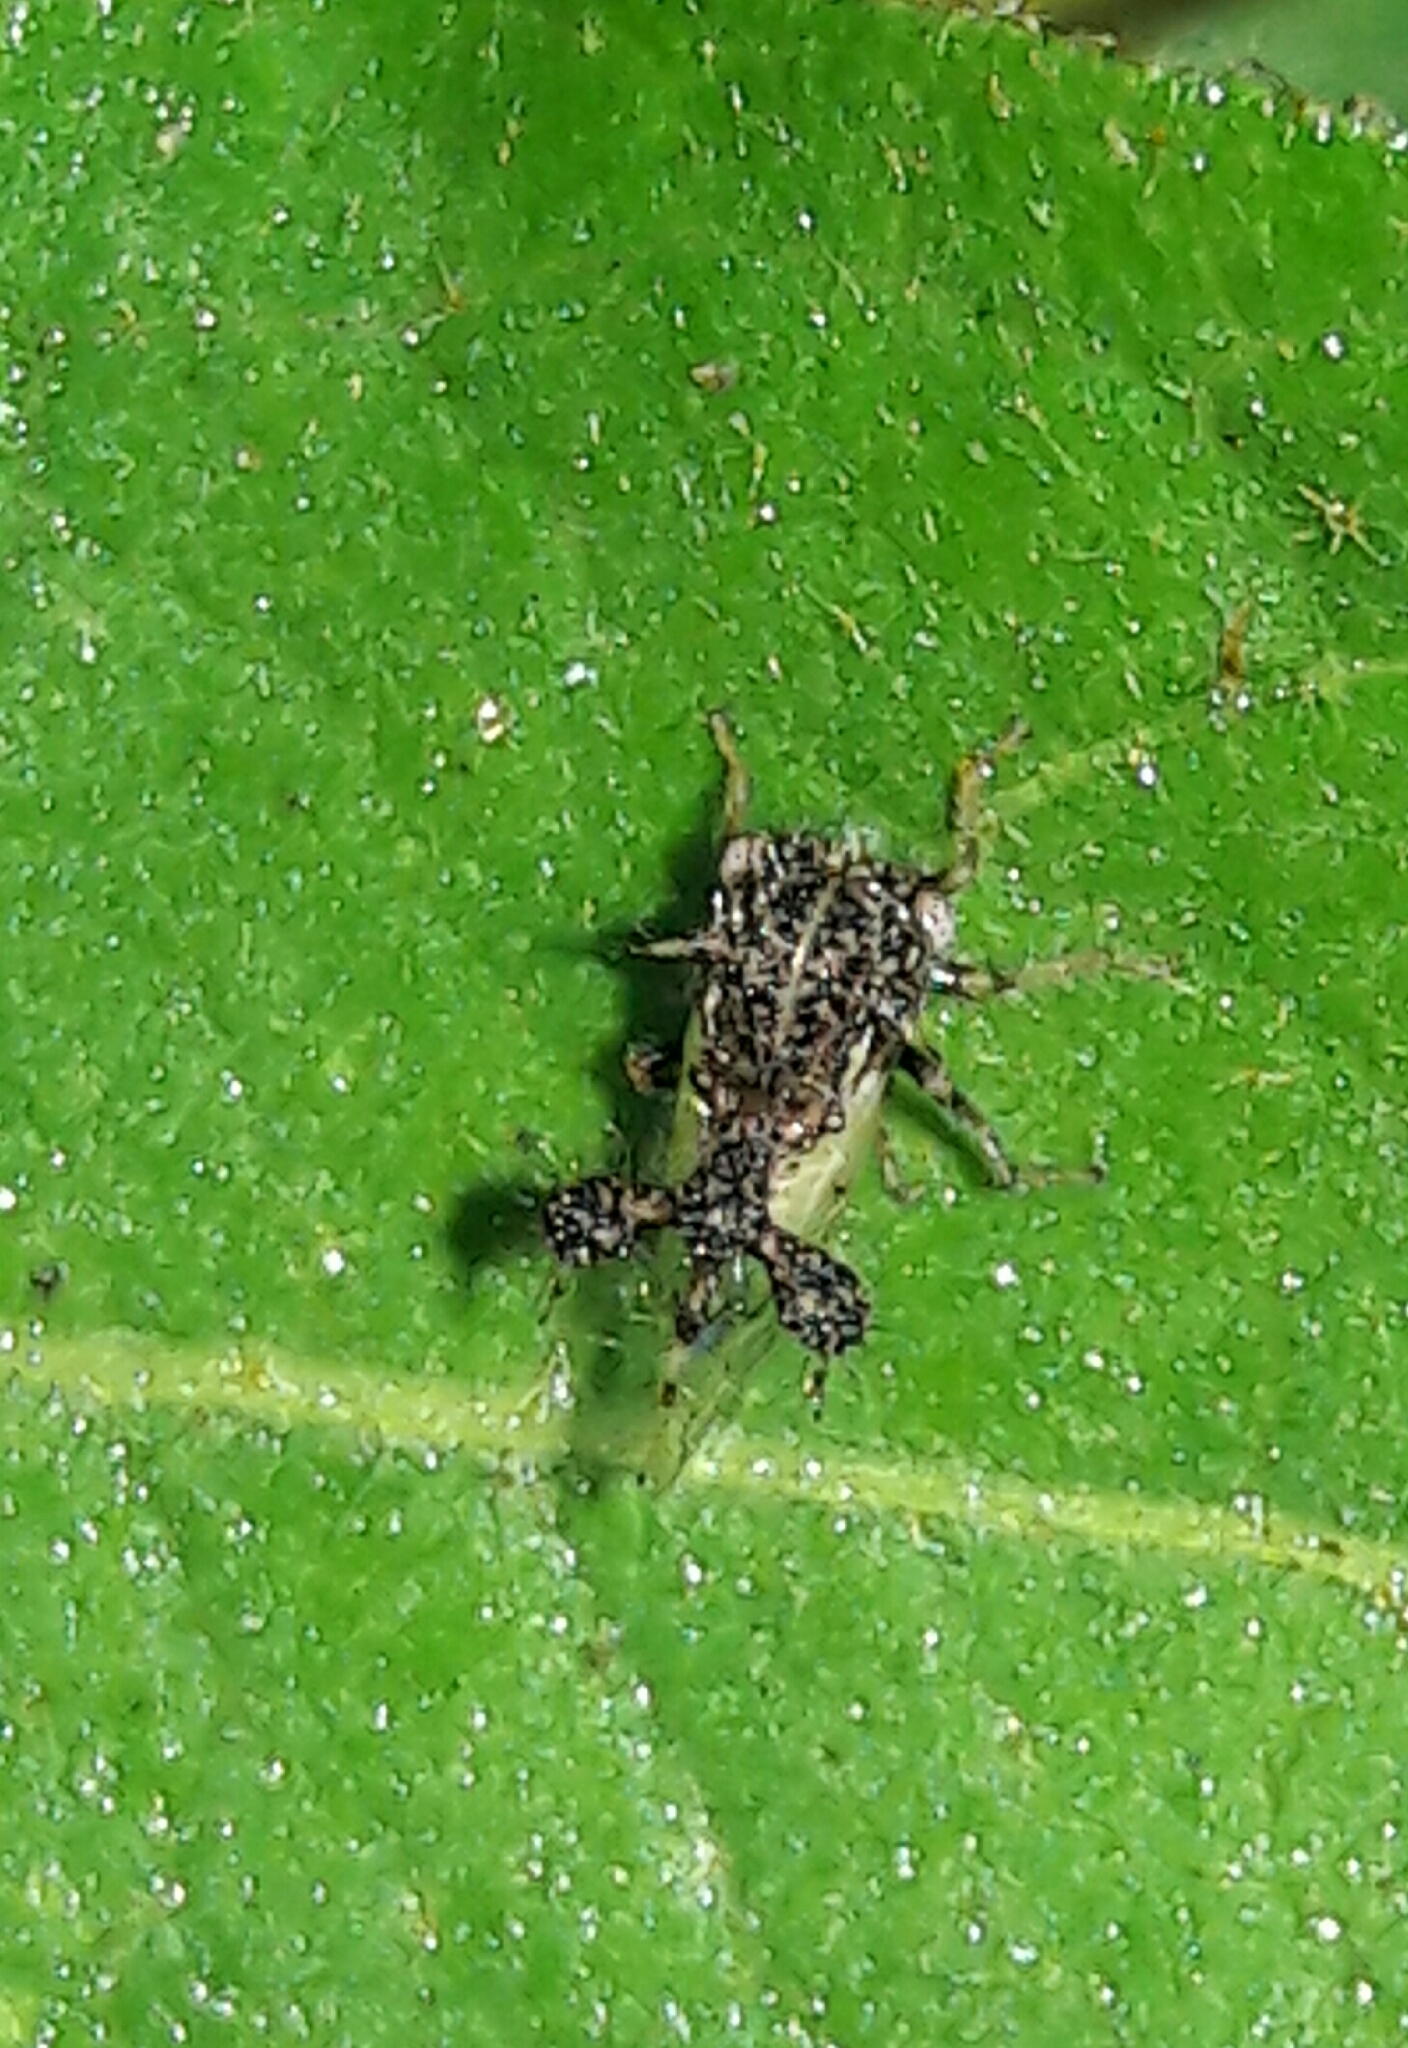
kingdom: Animalia
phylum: Arthropoda
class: Insecta
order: Hemiptera
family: Membracidae
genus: Cyphonia
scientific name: Cyphonia claviger
